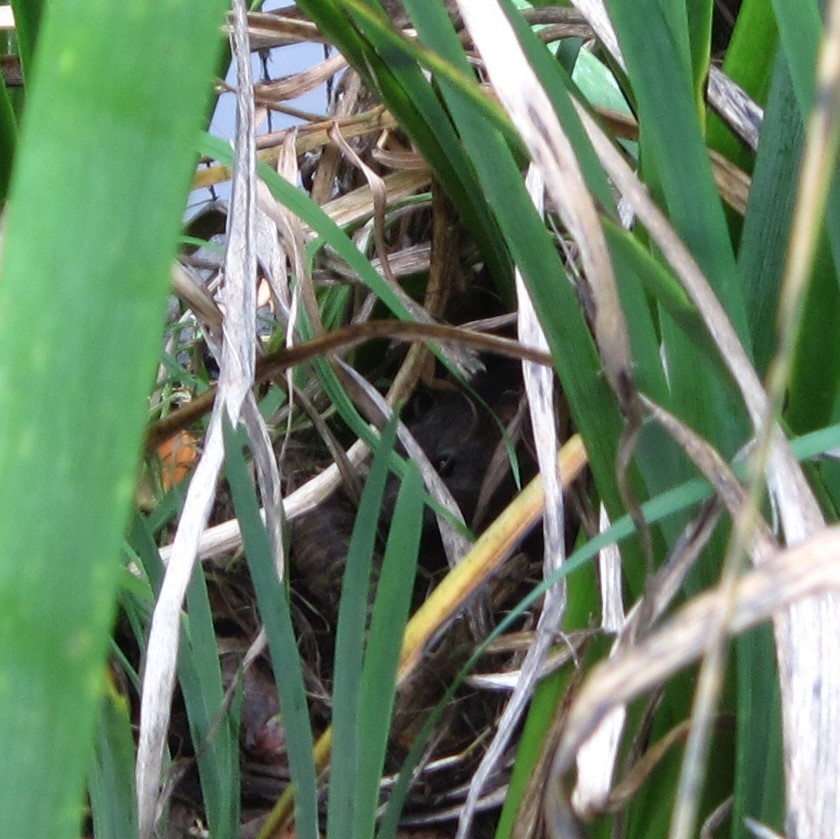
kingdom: Animalia
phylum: Chordata
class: Mammalia
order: Rodentia
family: Muridae
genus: Rattus
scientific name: Rattus norvegicus
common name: Brown rat
